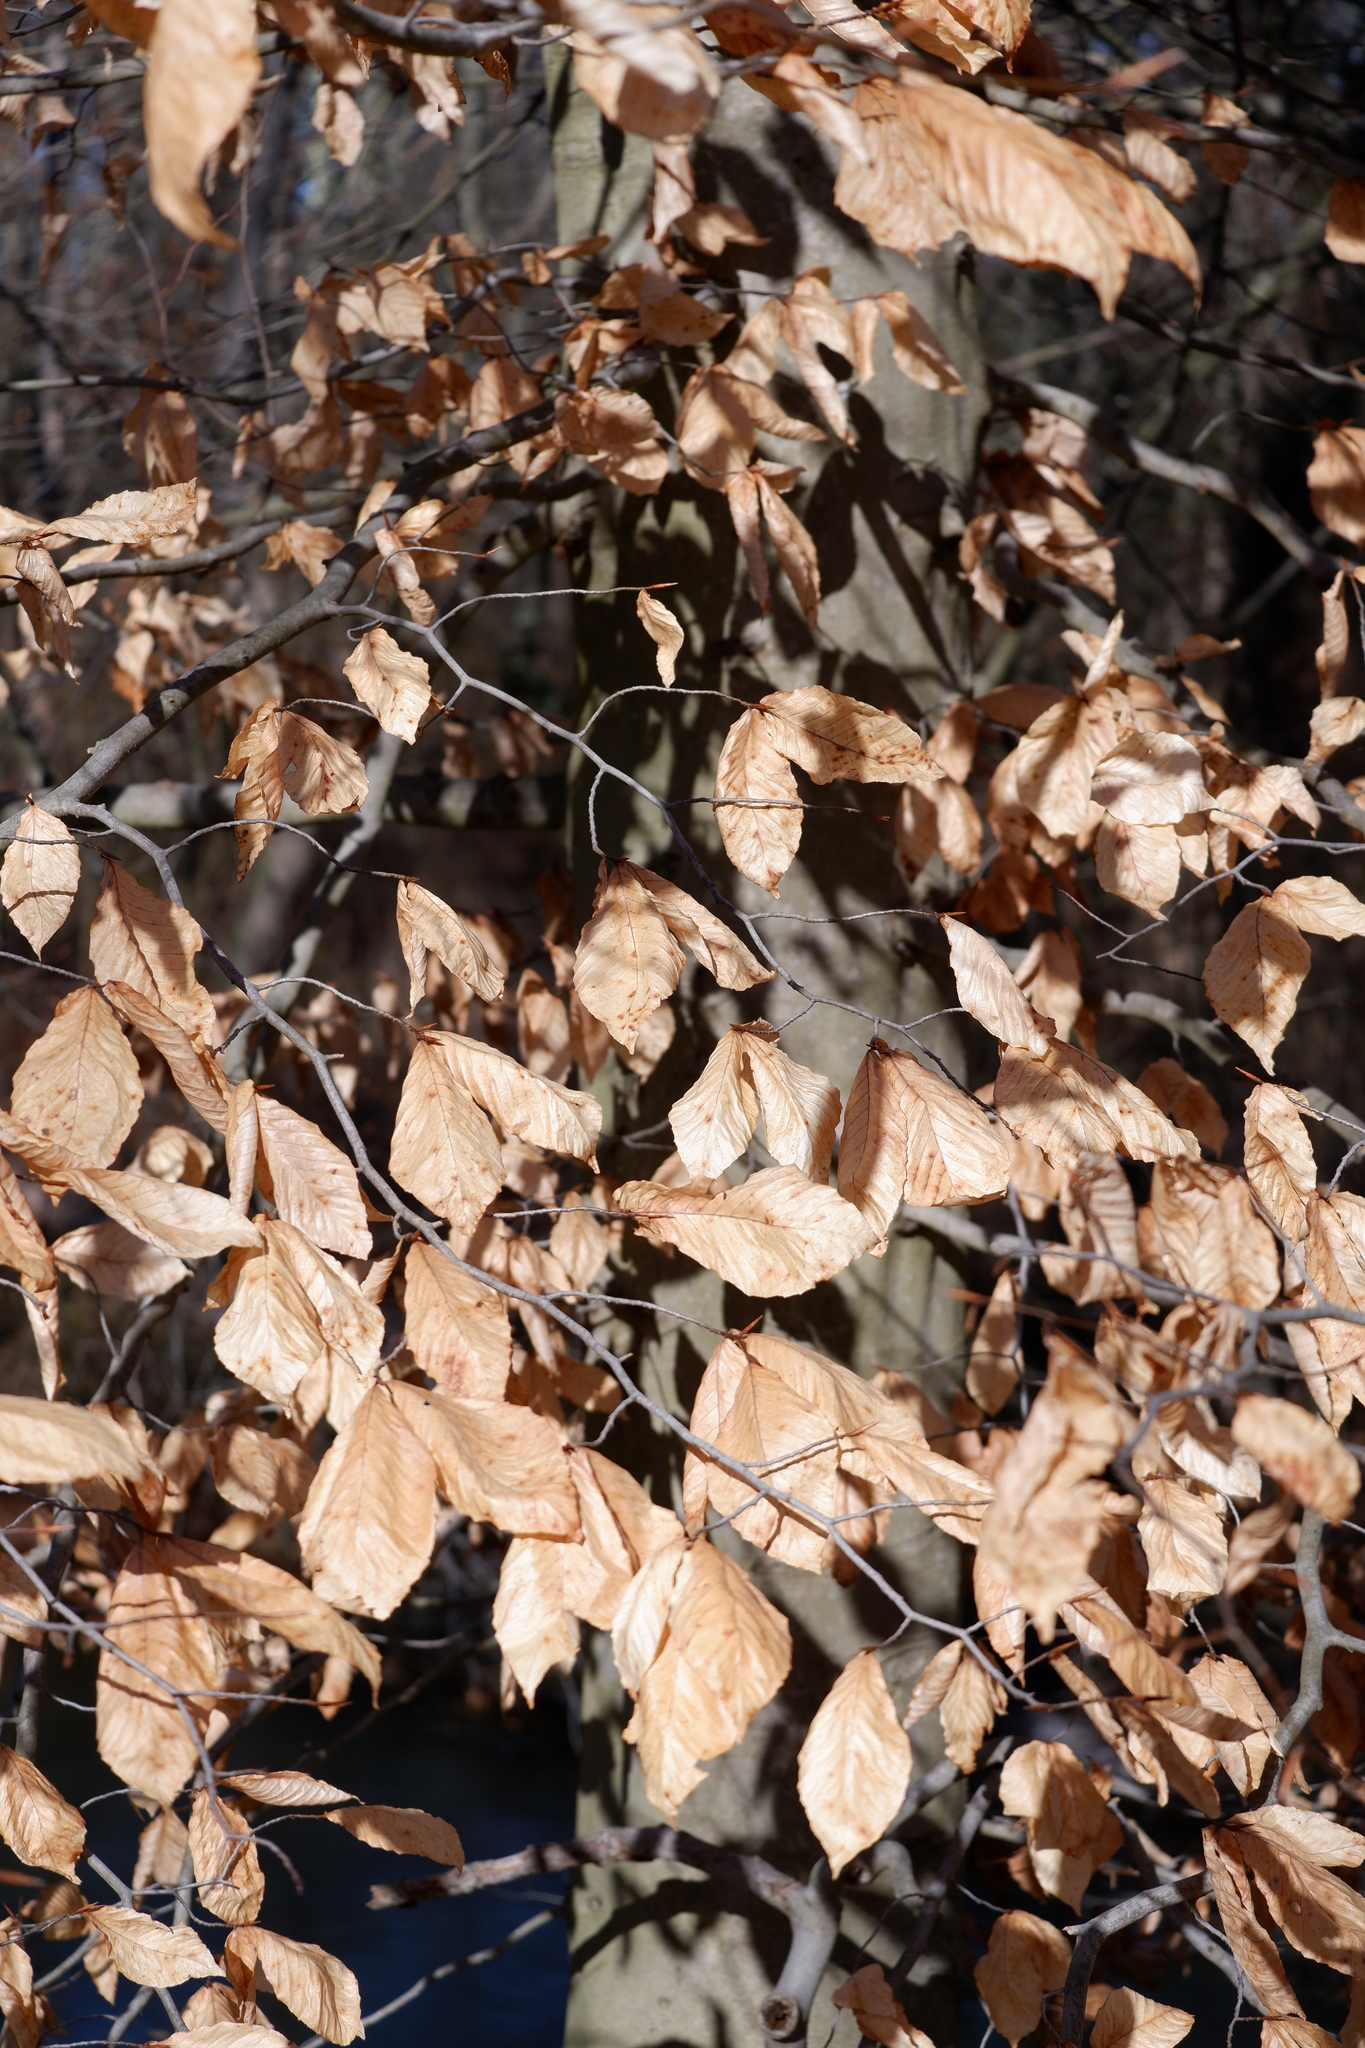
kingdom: Plantae
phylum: Tracheophyta
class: Magnoliopsida
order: Fagales
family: Fagaceae
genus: Fagus
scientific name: Fagus grandifolia
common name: American beech
